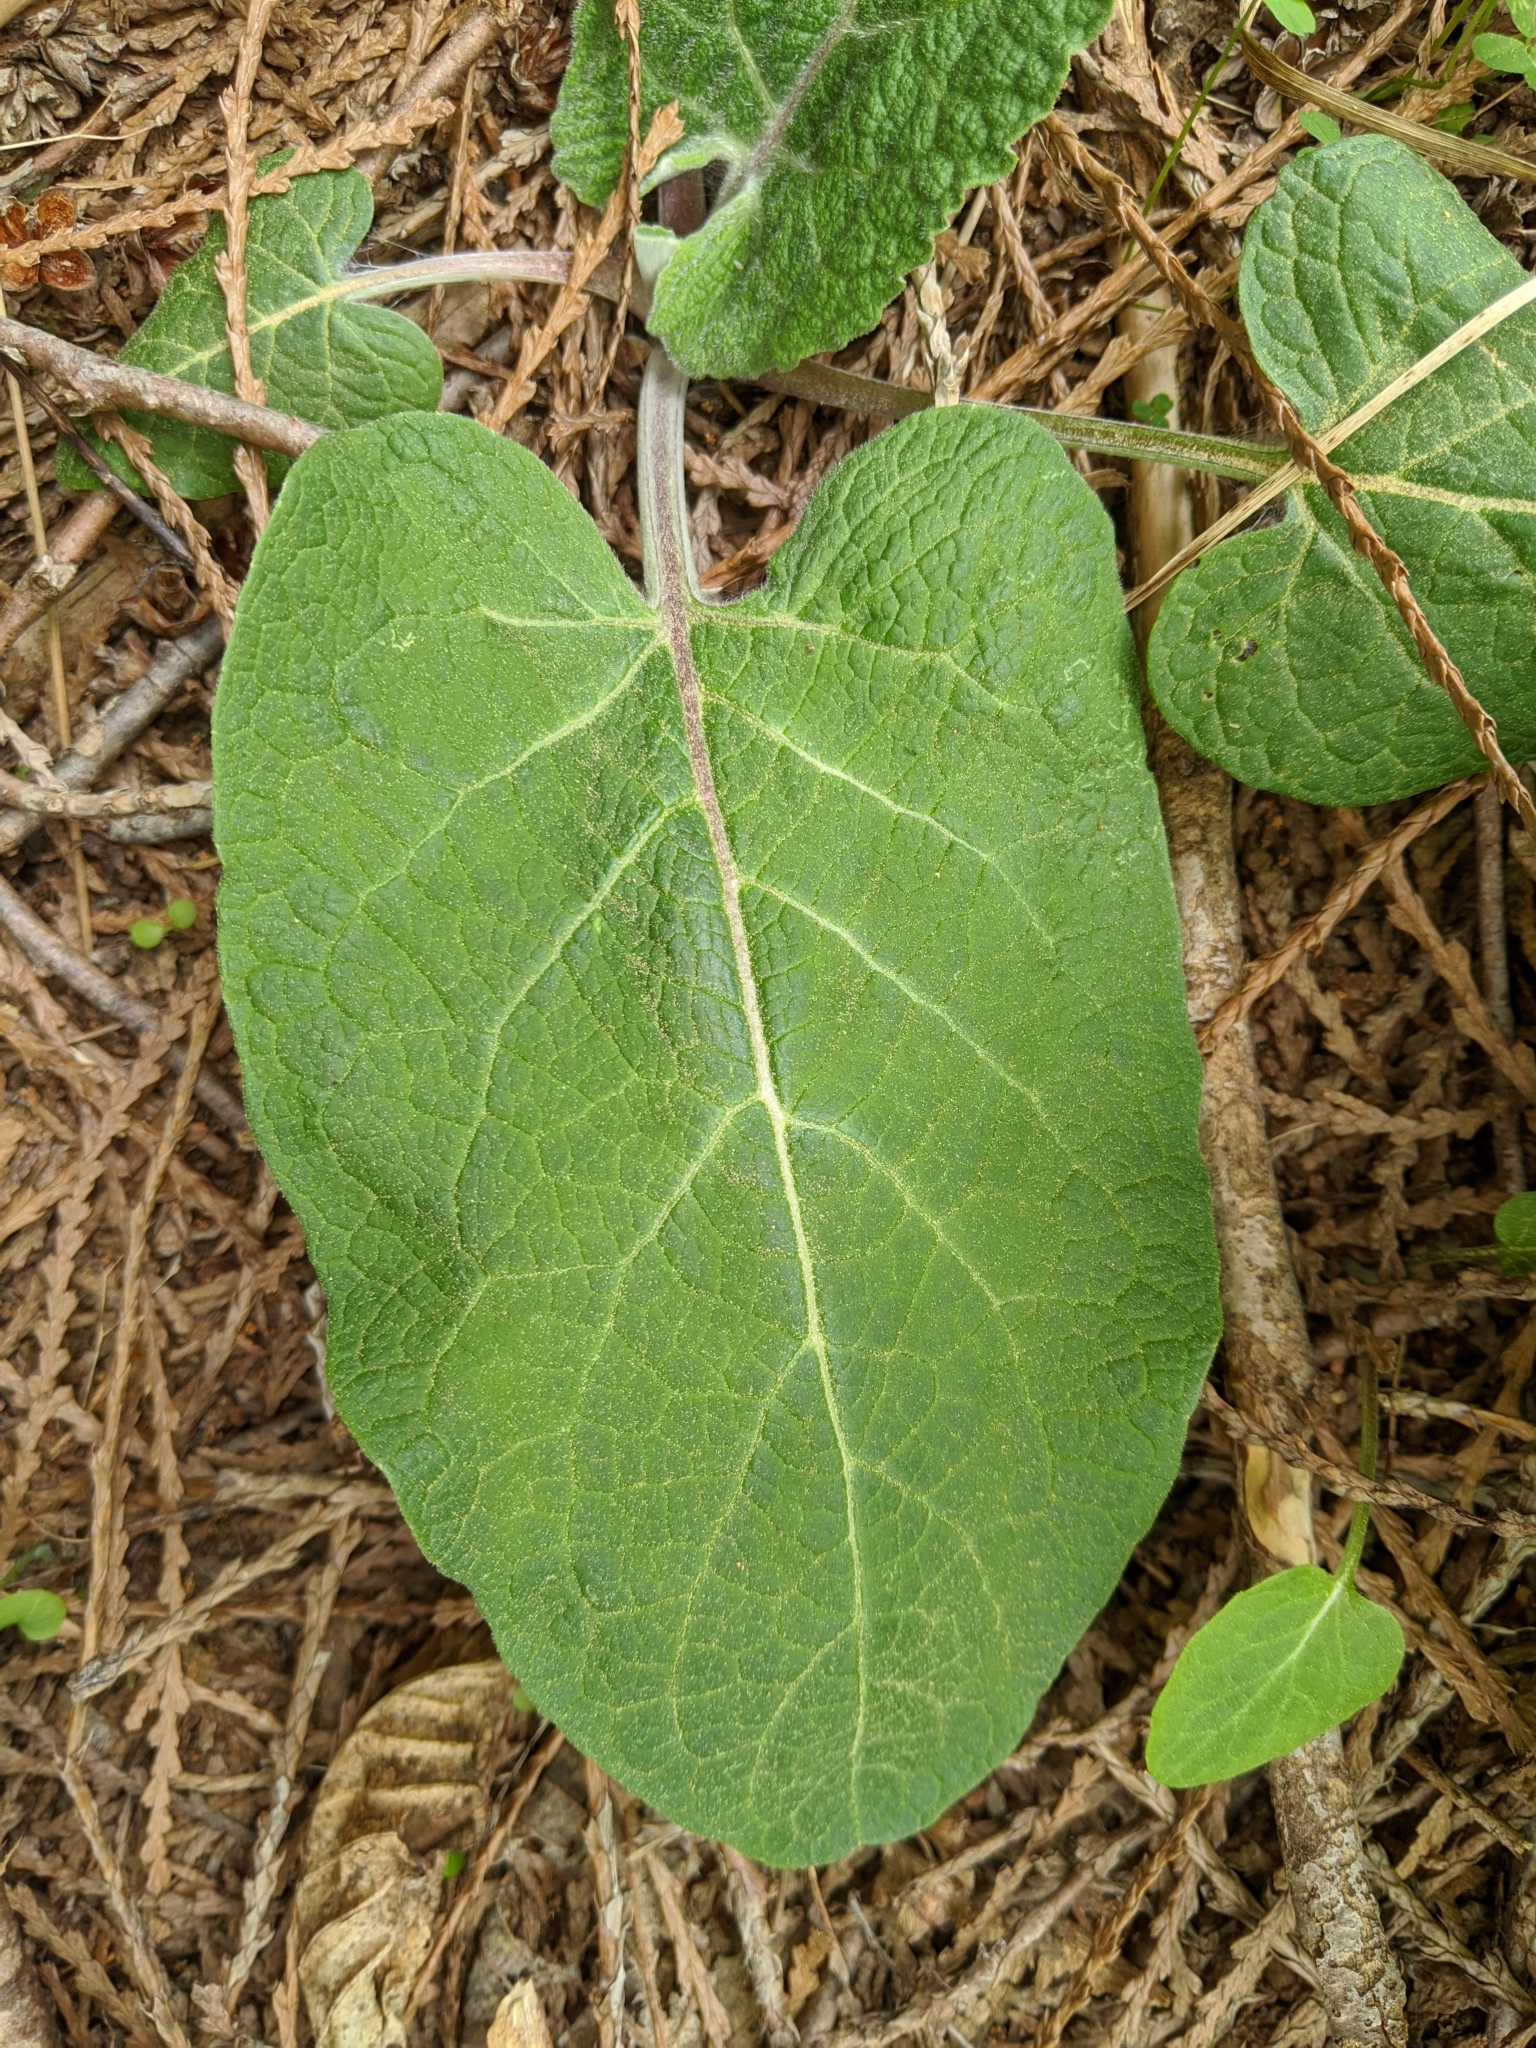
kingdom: Plantae
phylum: Tracheophyta
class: Magnoliopsida
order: Asterales
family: Asteraceae
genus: Arctium
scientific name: Arctium minus
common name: Lesser burdock
